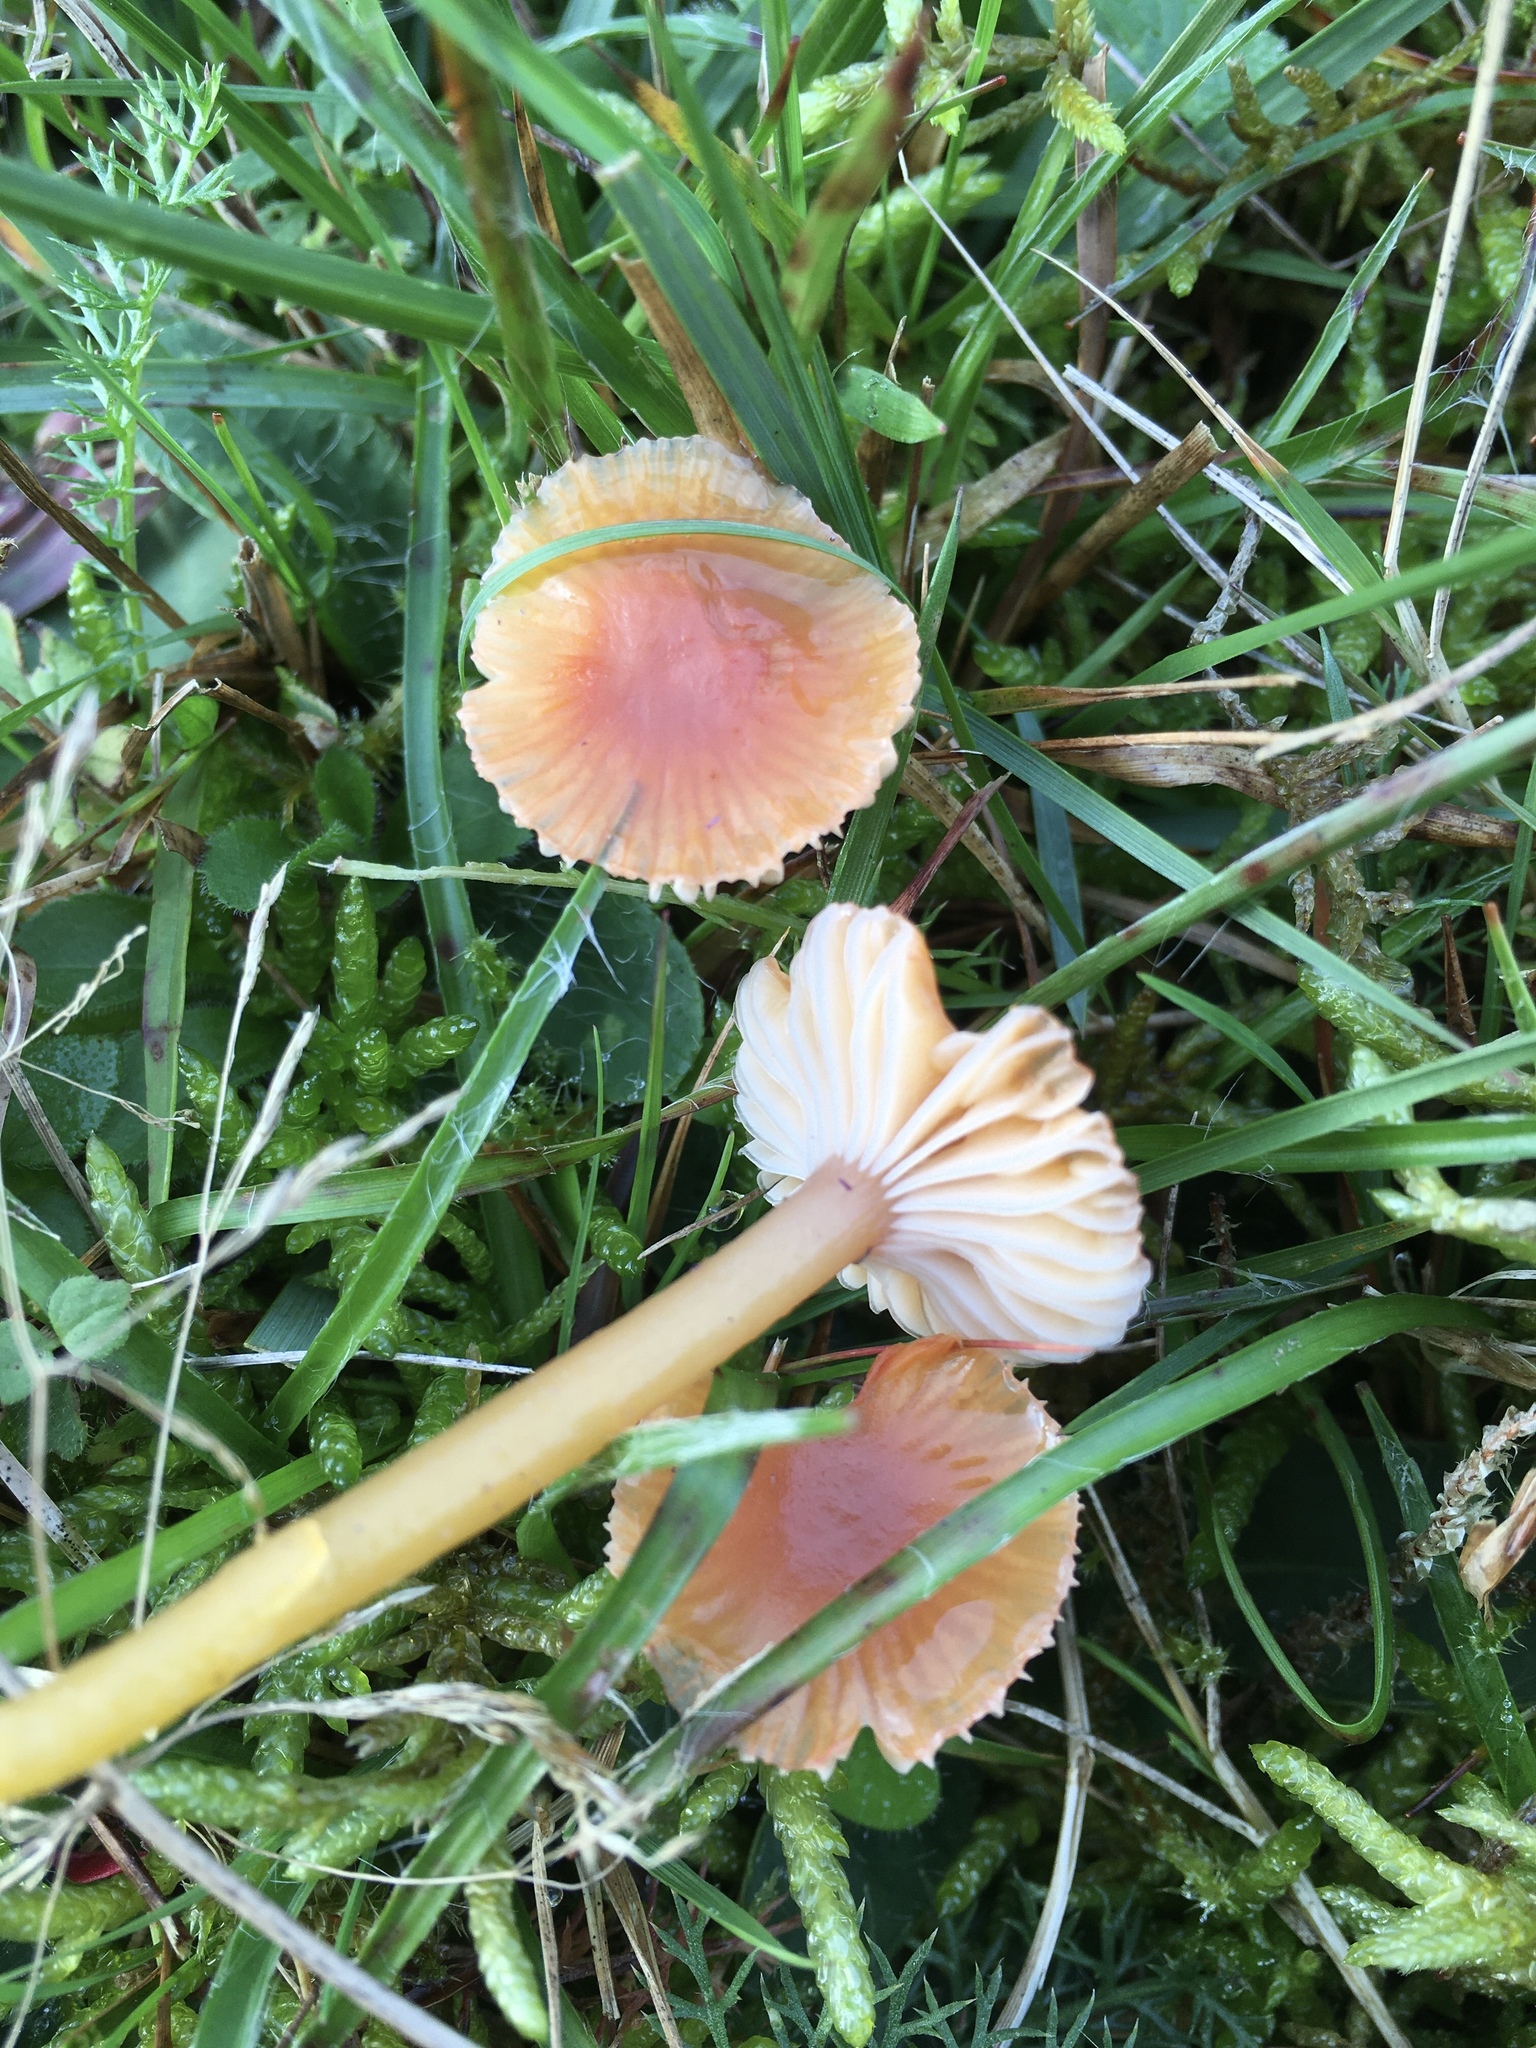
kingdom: Fungi
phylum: Basidiomycota
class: Agaricomycetes
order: Agaricales
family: Hygrophoraceae
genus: Gliophorus
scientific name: Gliophorus laetus
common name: Heath waxcap
